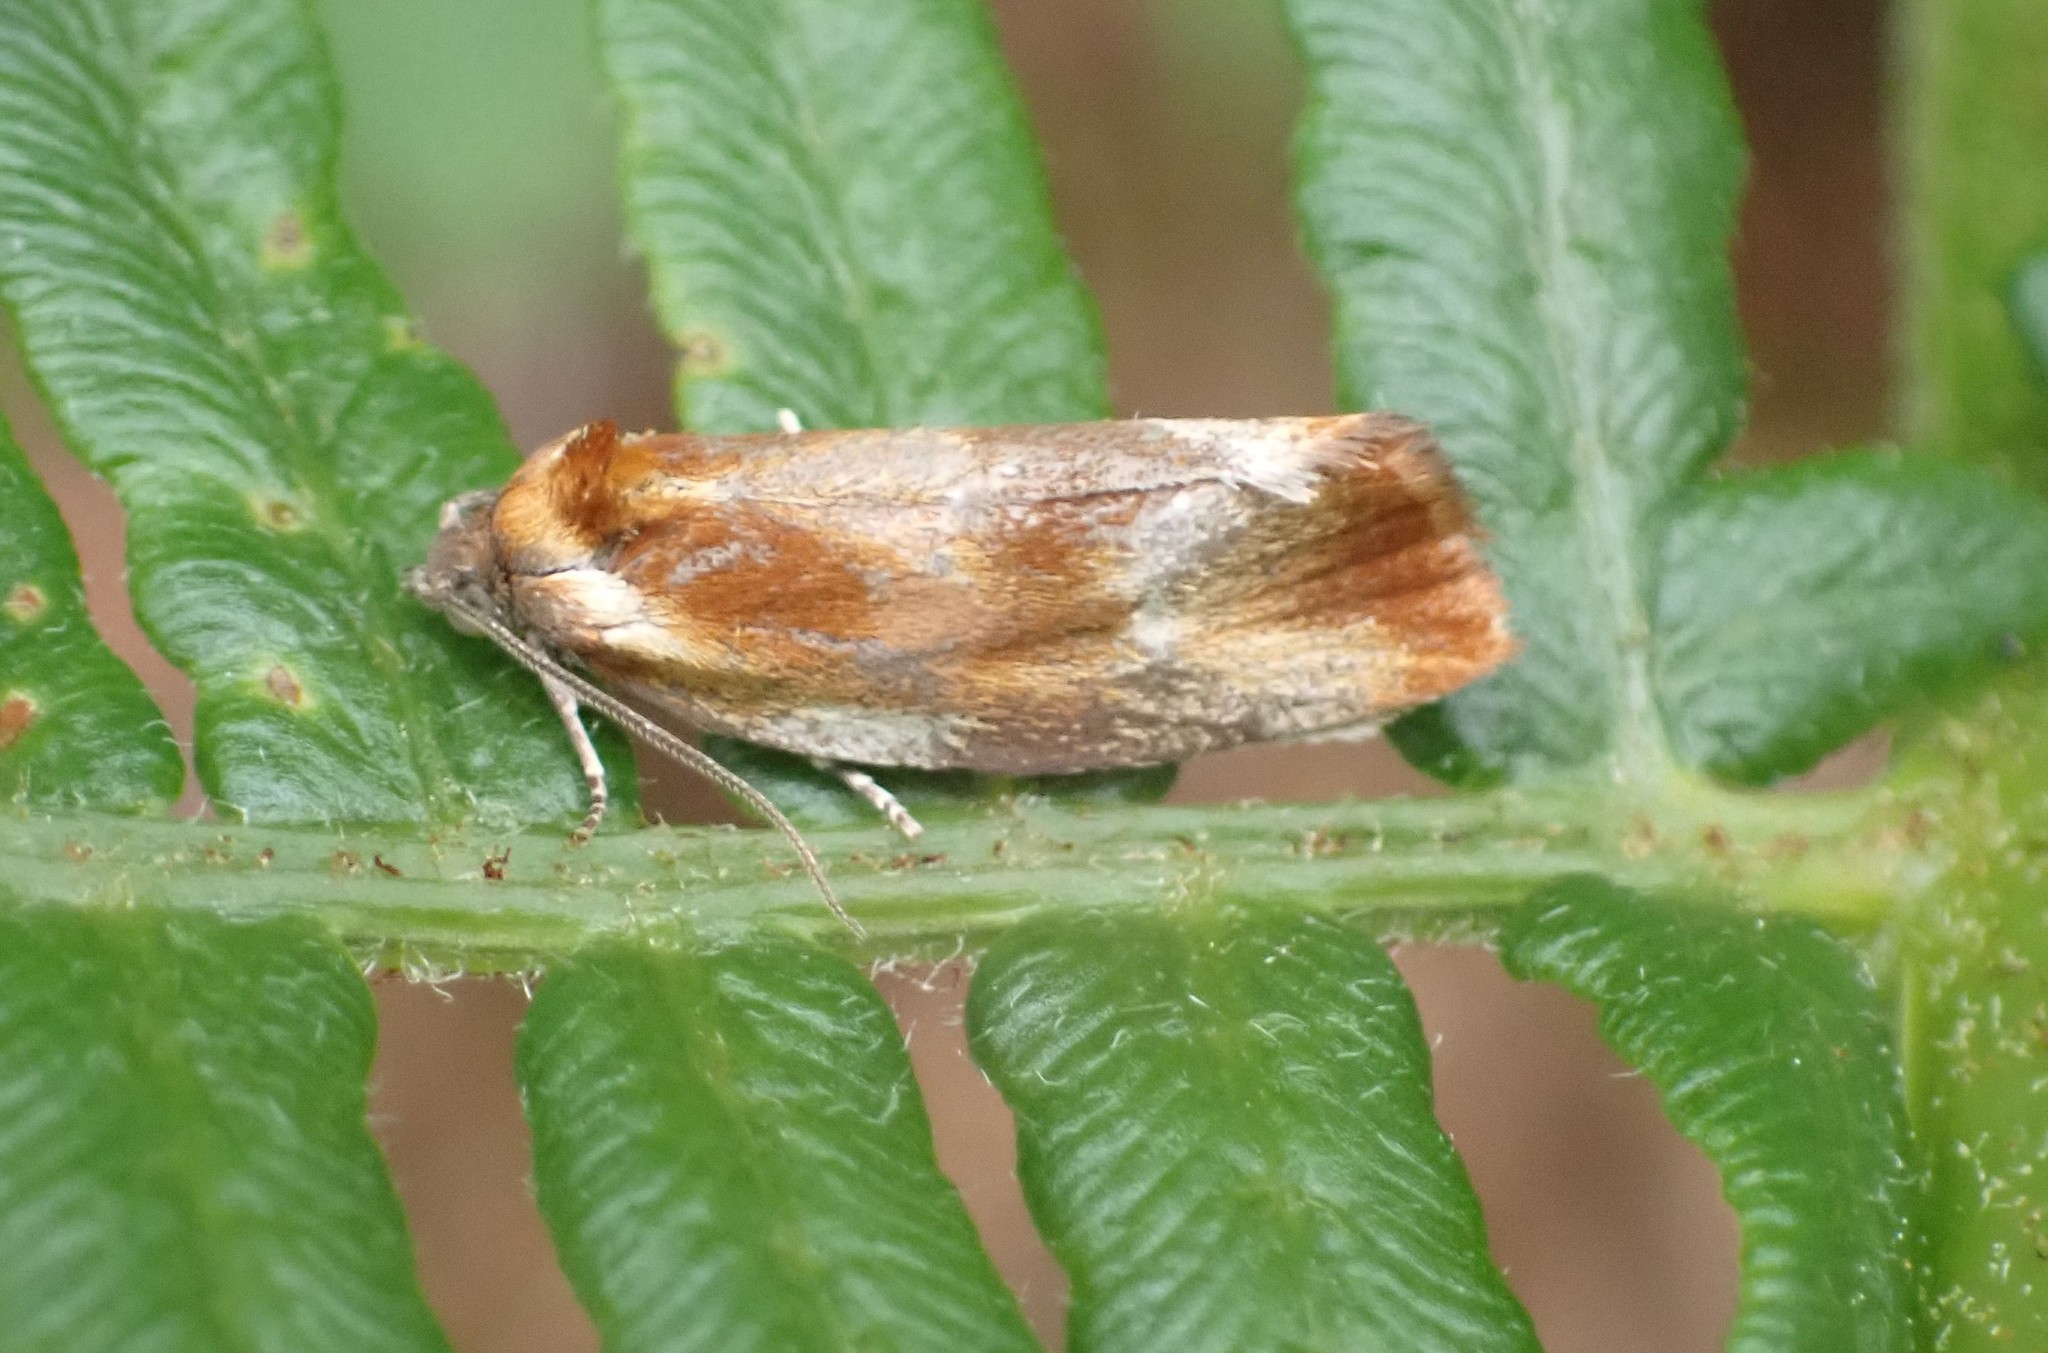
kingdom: Animalia
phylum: Arthropoda
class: Insecta
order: Lepidoptera
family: Tortricidae
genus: Eulia
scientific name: Eulia ministrana
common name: Brassy twist
